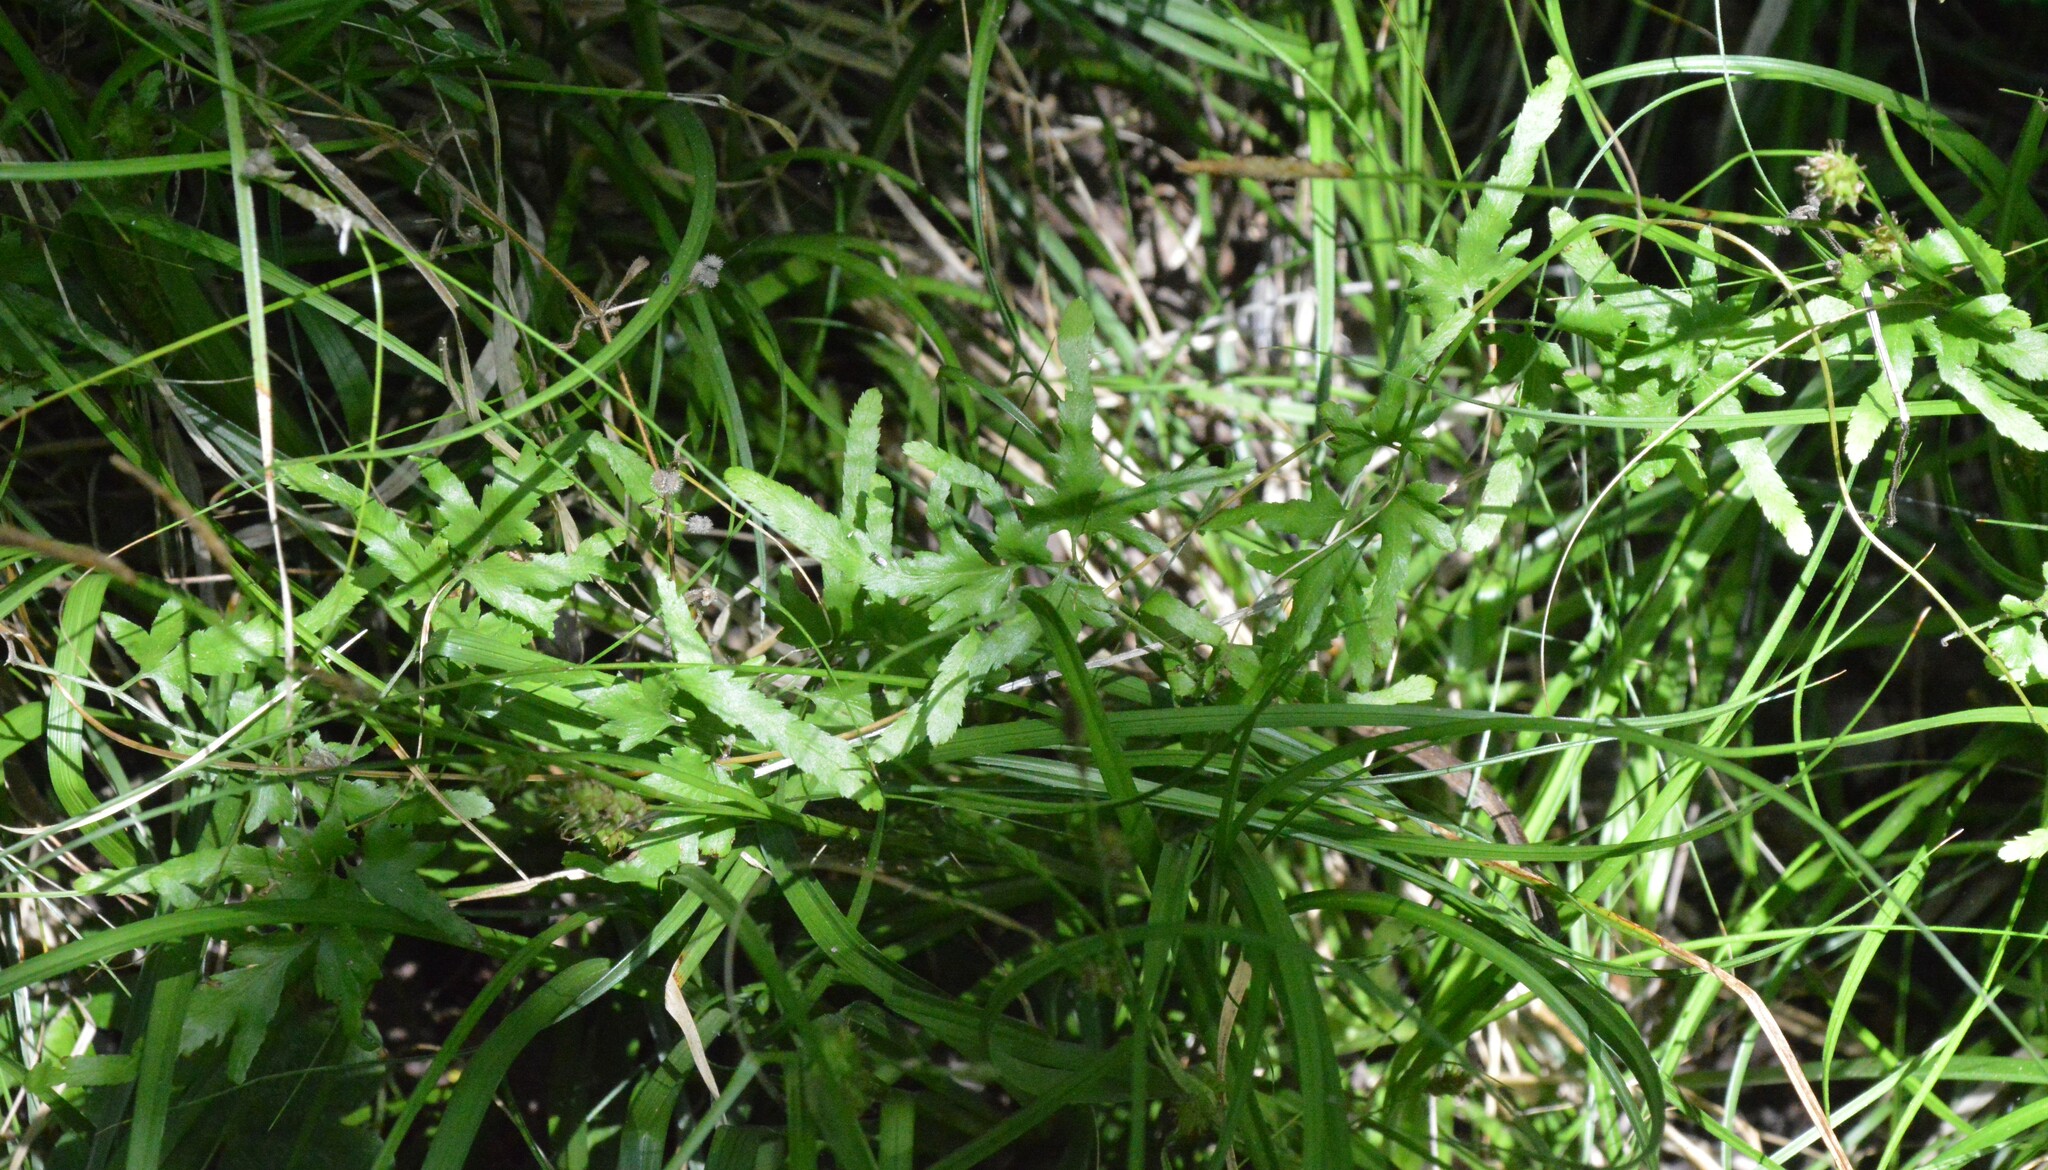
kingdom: Plantae
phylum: Tracheophyta
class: Polypodiopsida
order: Schizaeales
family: Lygodiaceae
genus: Lygodium
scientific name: Lygodium japonicum
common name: Japanese climbing fern
